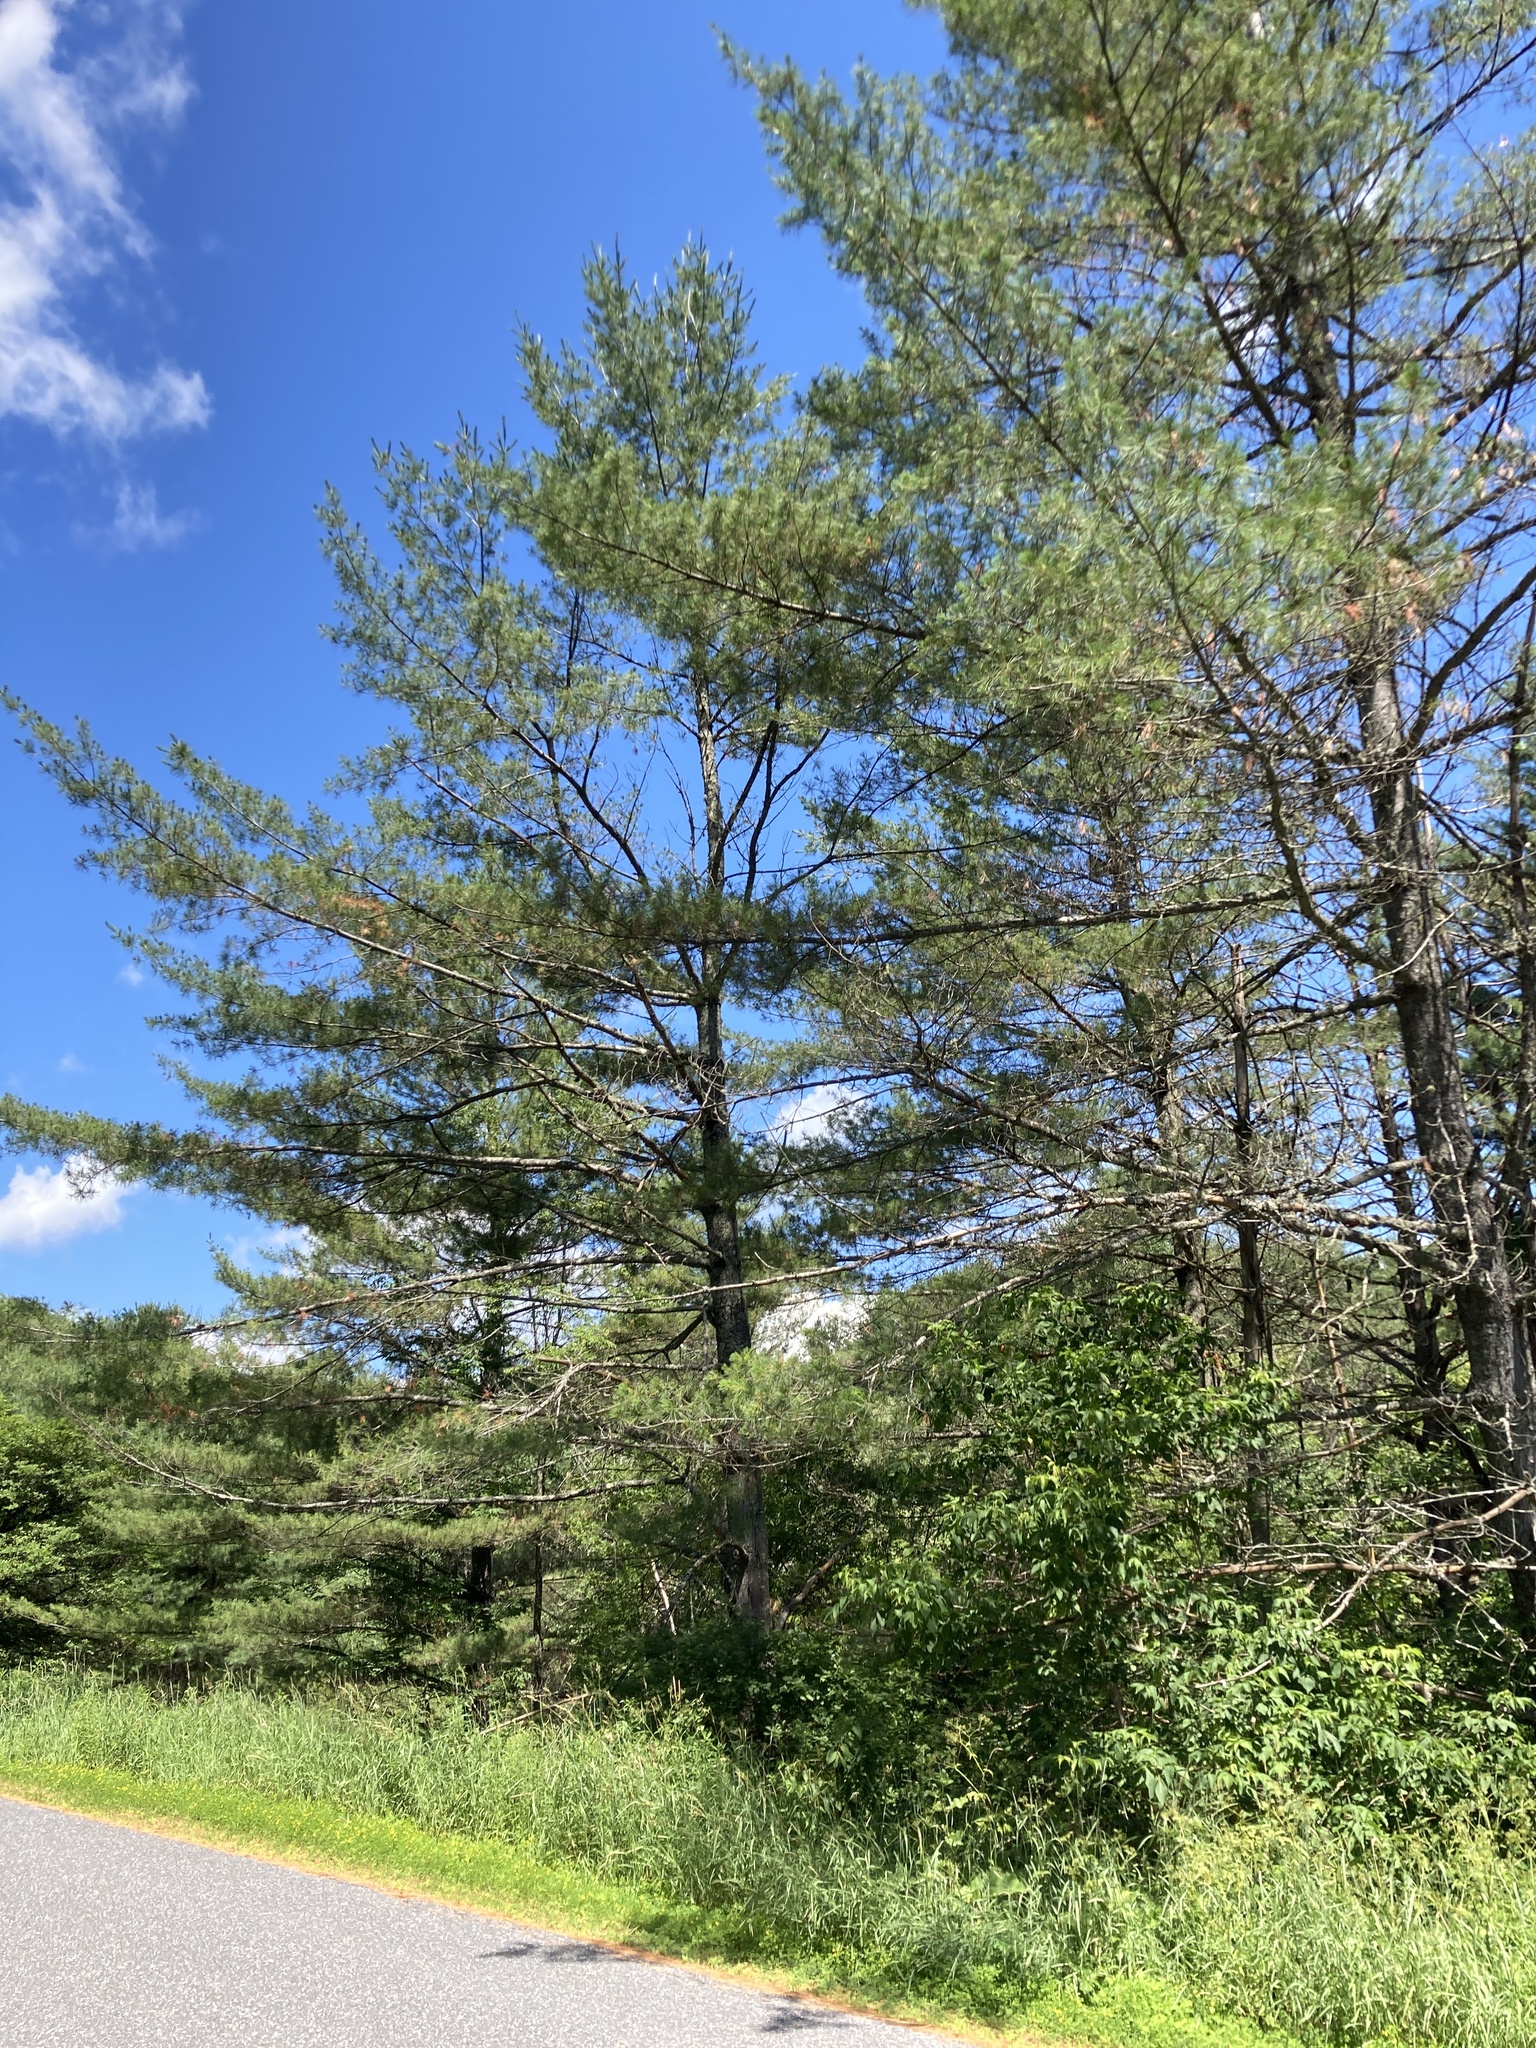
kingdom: Plantae
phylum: Tracheophyta
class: Pinopsida
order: Pinales
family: Pinaceae
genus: Pinus
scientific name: Pinus strobus
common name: Weymouth pine
